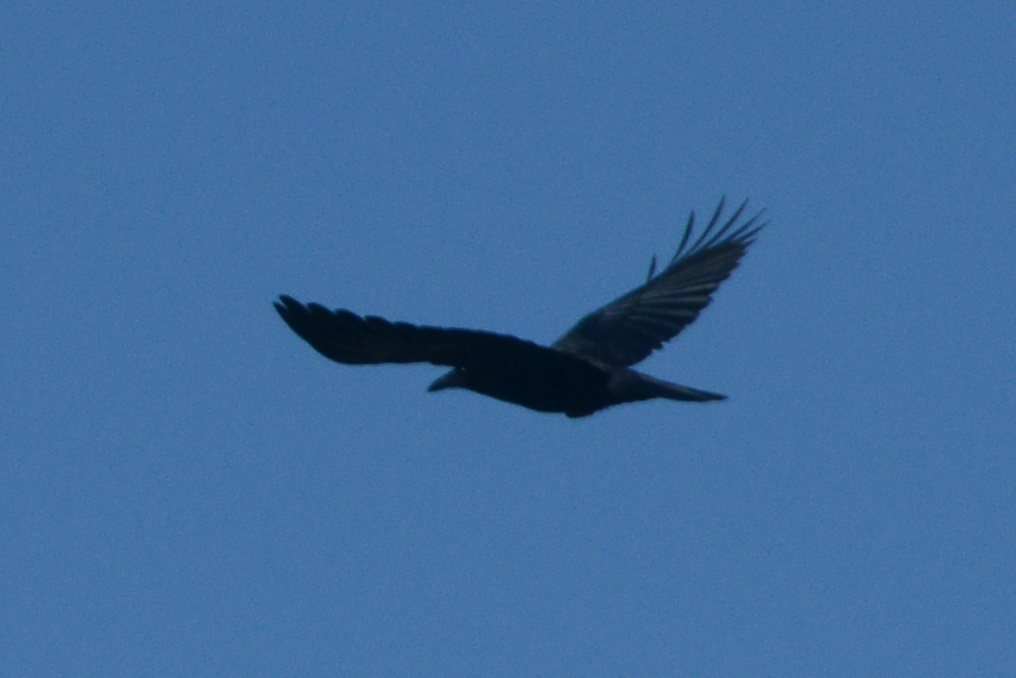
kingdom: Animalia
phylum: Chordata
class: Aves
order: Passeriformes
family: Corvidae
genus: Corvus
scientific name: Corvus brachyrhynchos
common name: American crow
